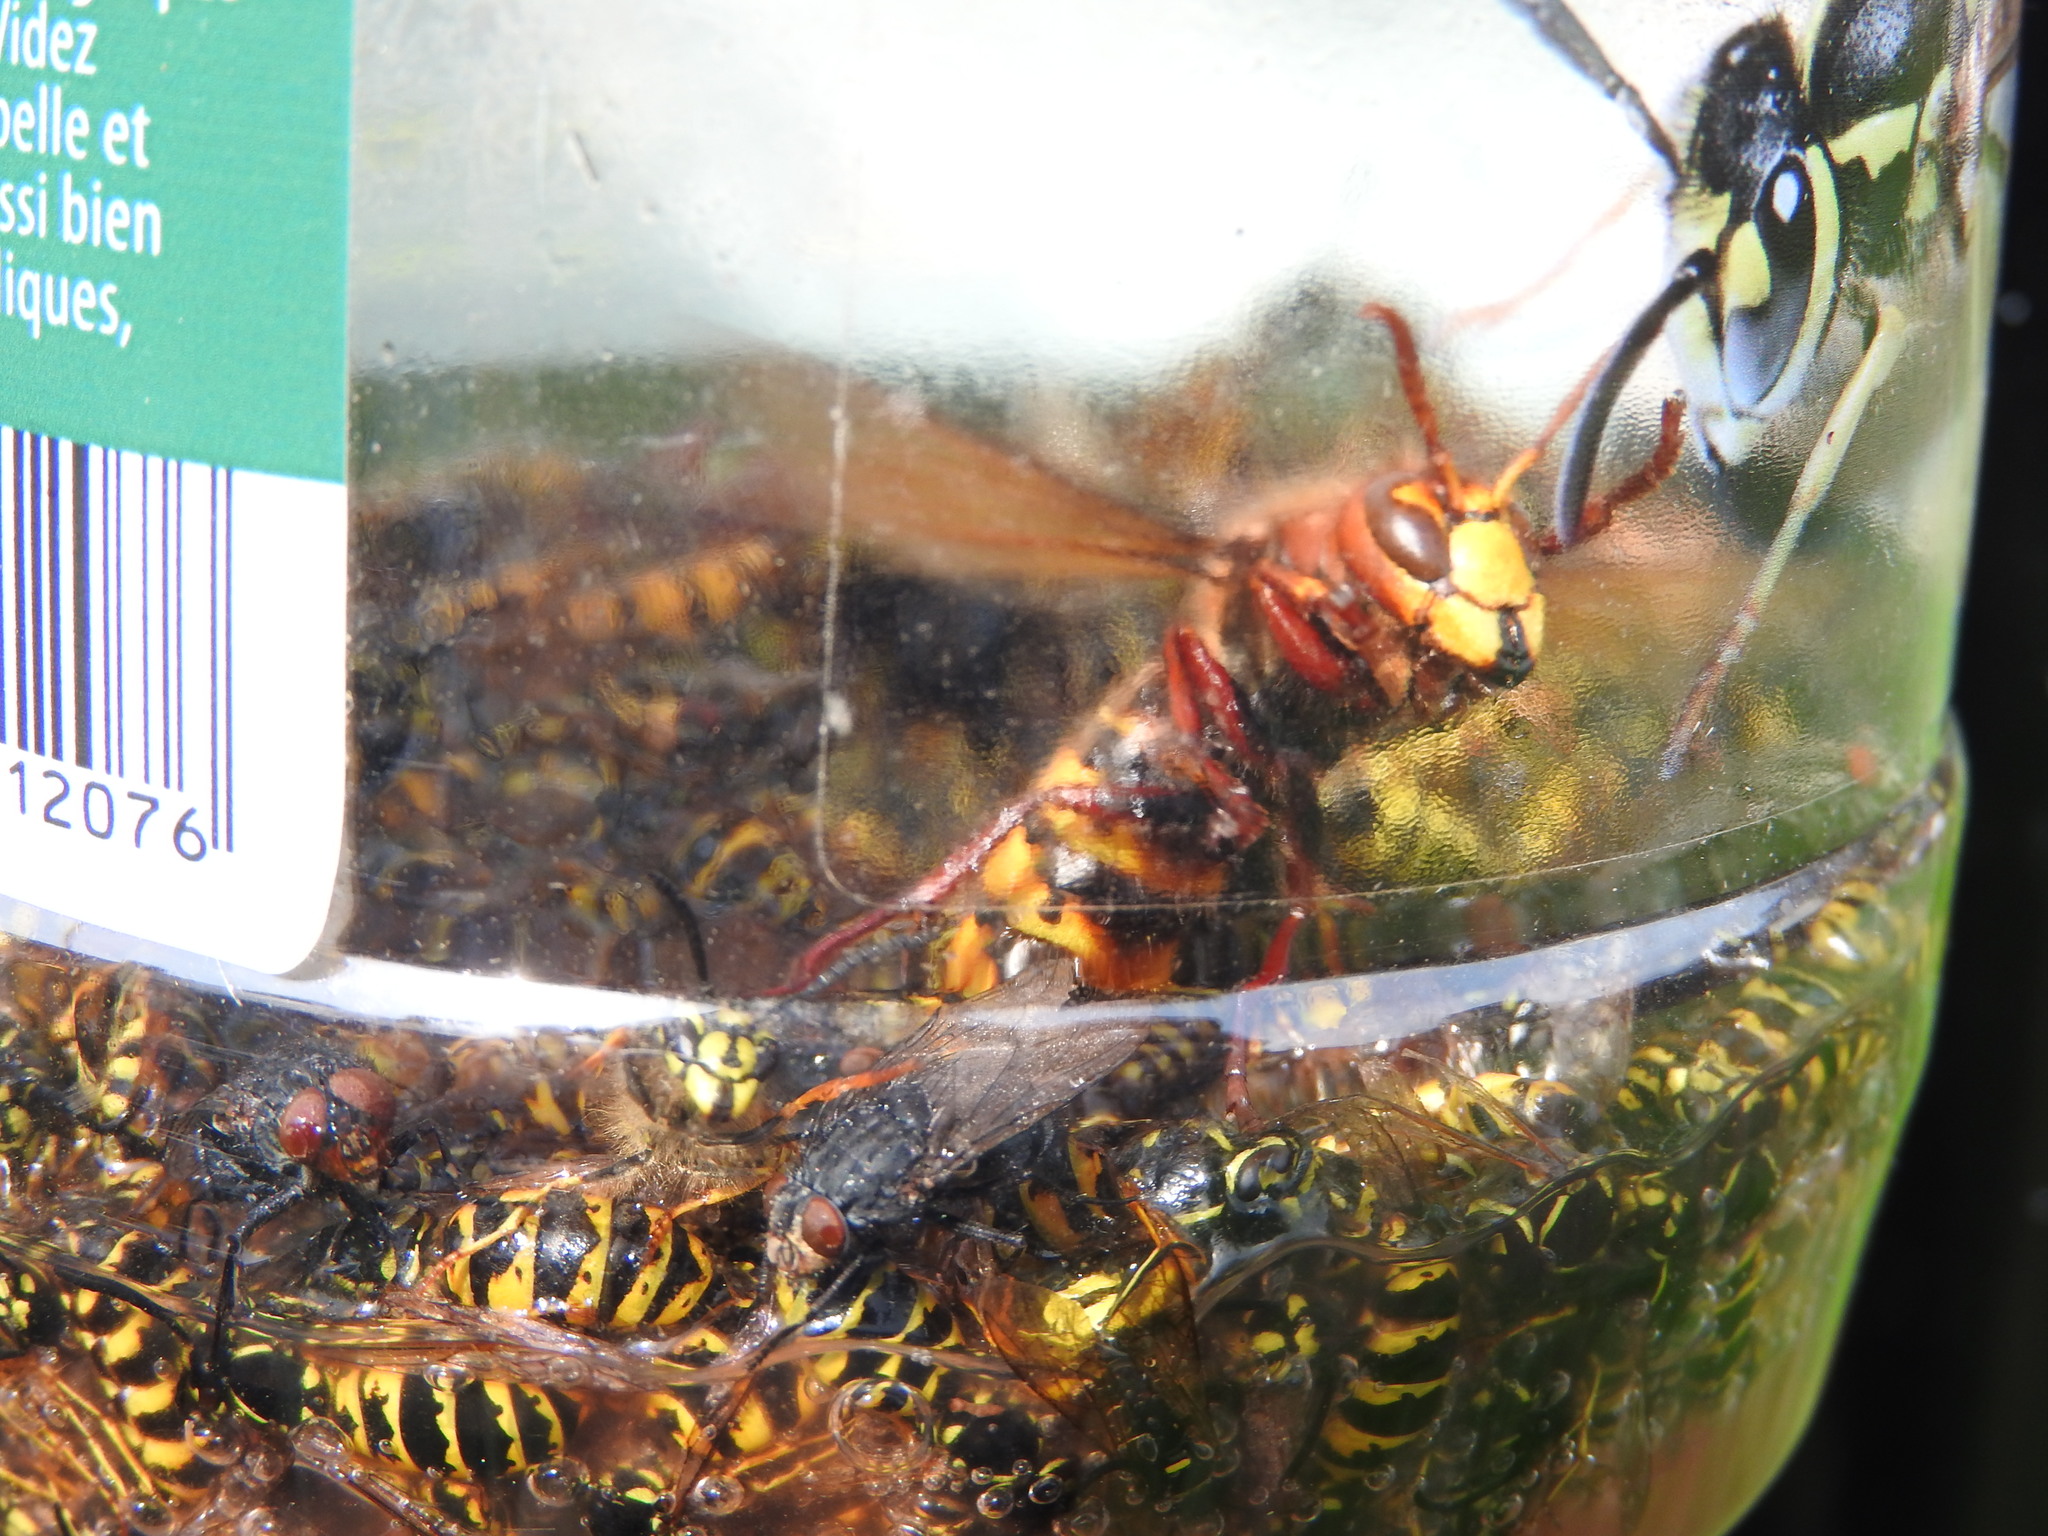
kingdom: Animalia
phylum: Arthropoda
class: Insecta
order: Hymenoptera
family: Vespidae
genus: Vespa
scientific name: Vespa crabro
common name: Hornet
